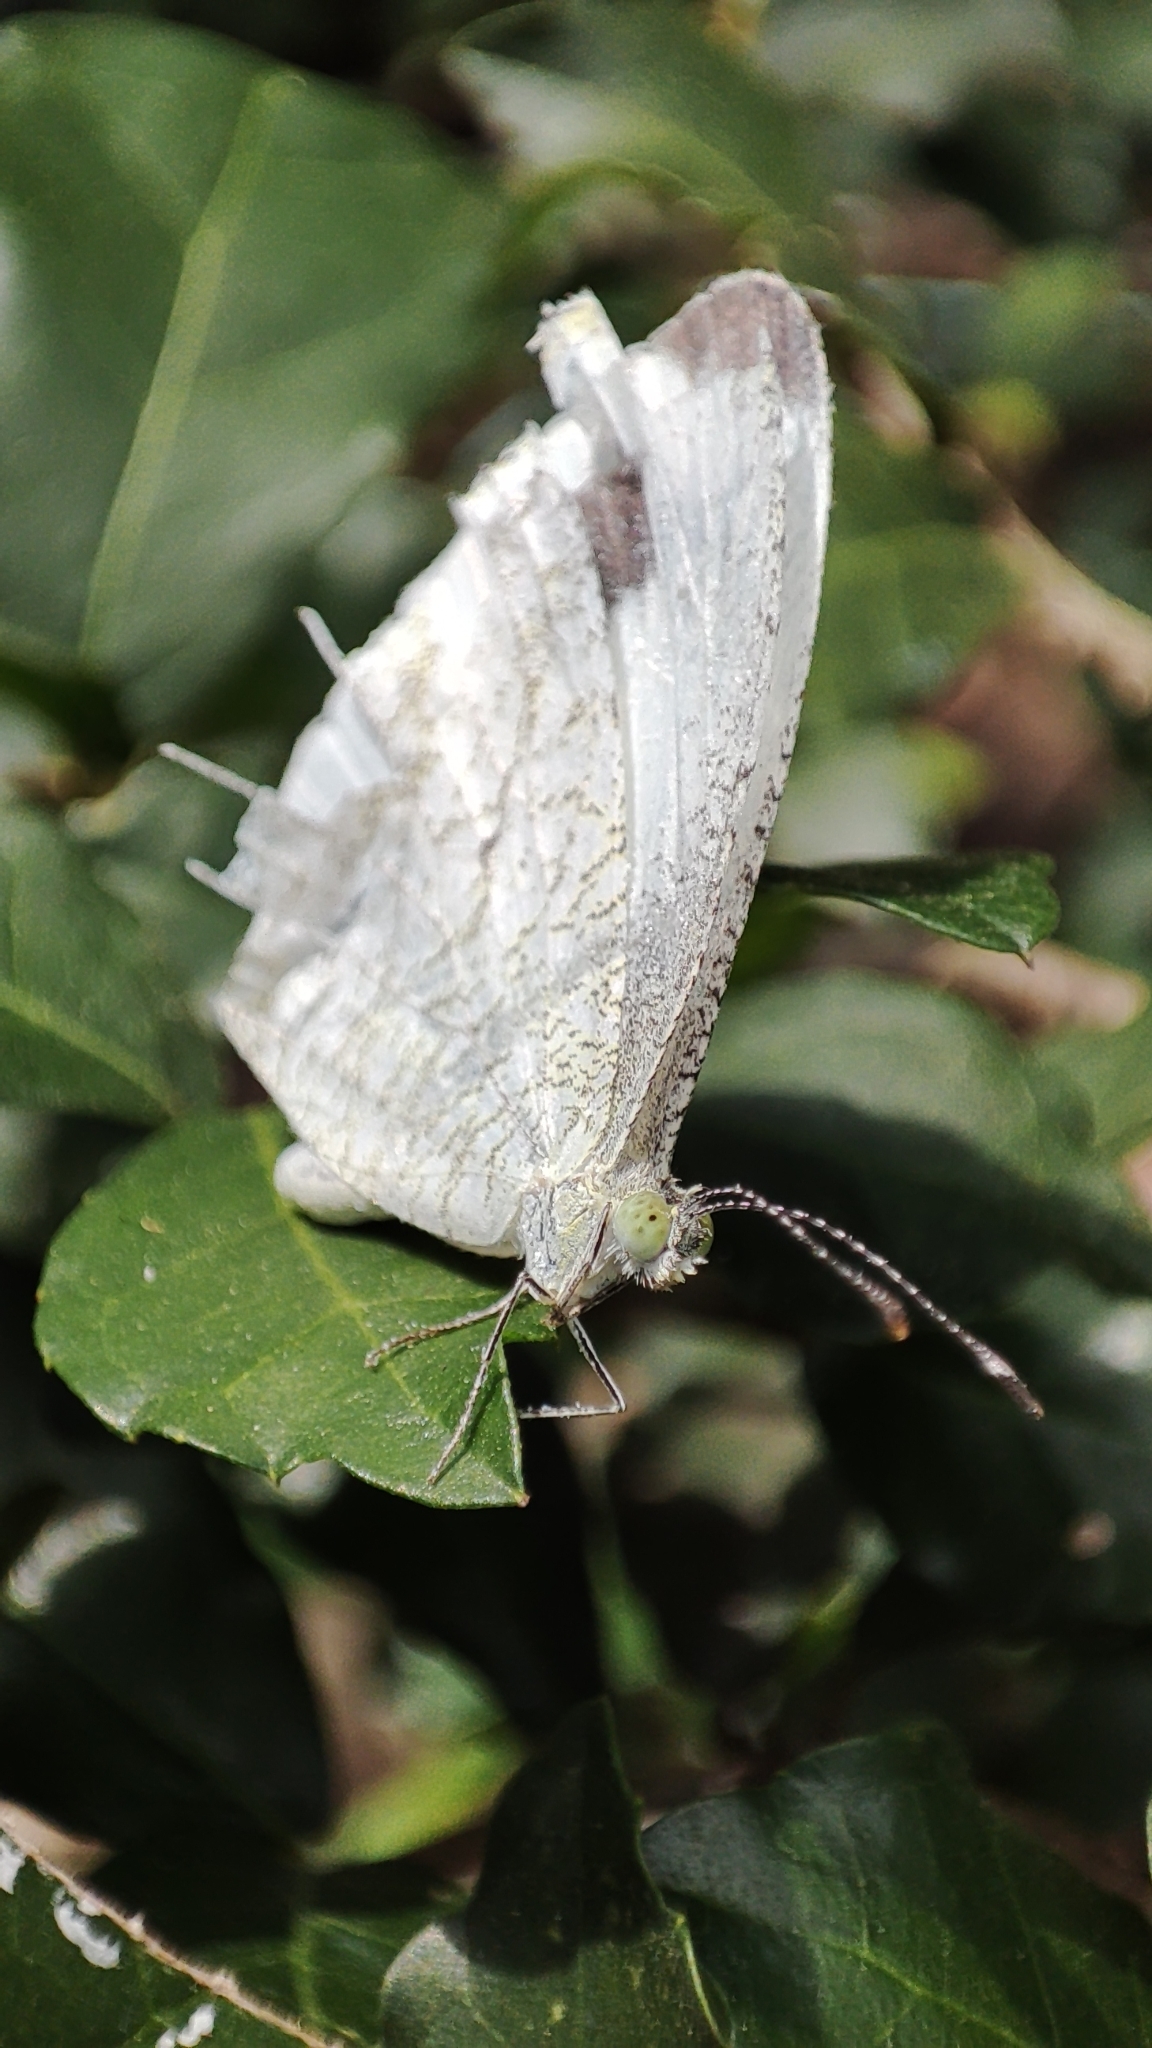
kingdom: Animalia
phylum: Arthropoda
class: Insecta
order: Lepidoptera
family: Pieridae
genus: Leptosia
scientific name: Leptosia nina
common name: Psyche
